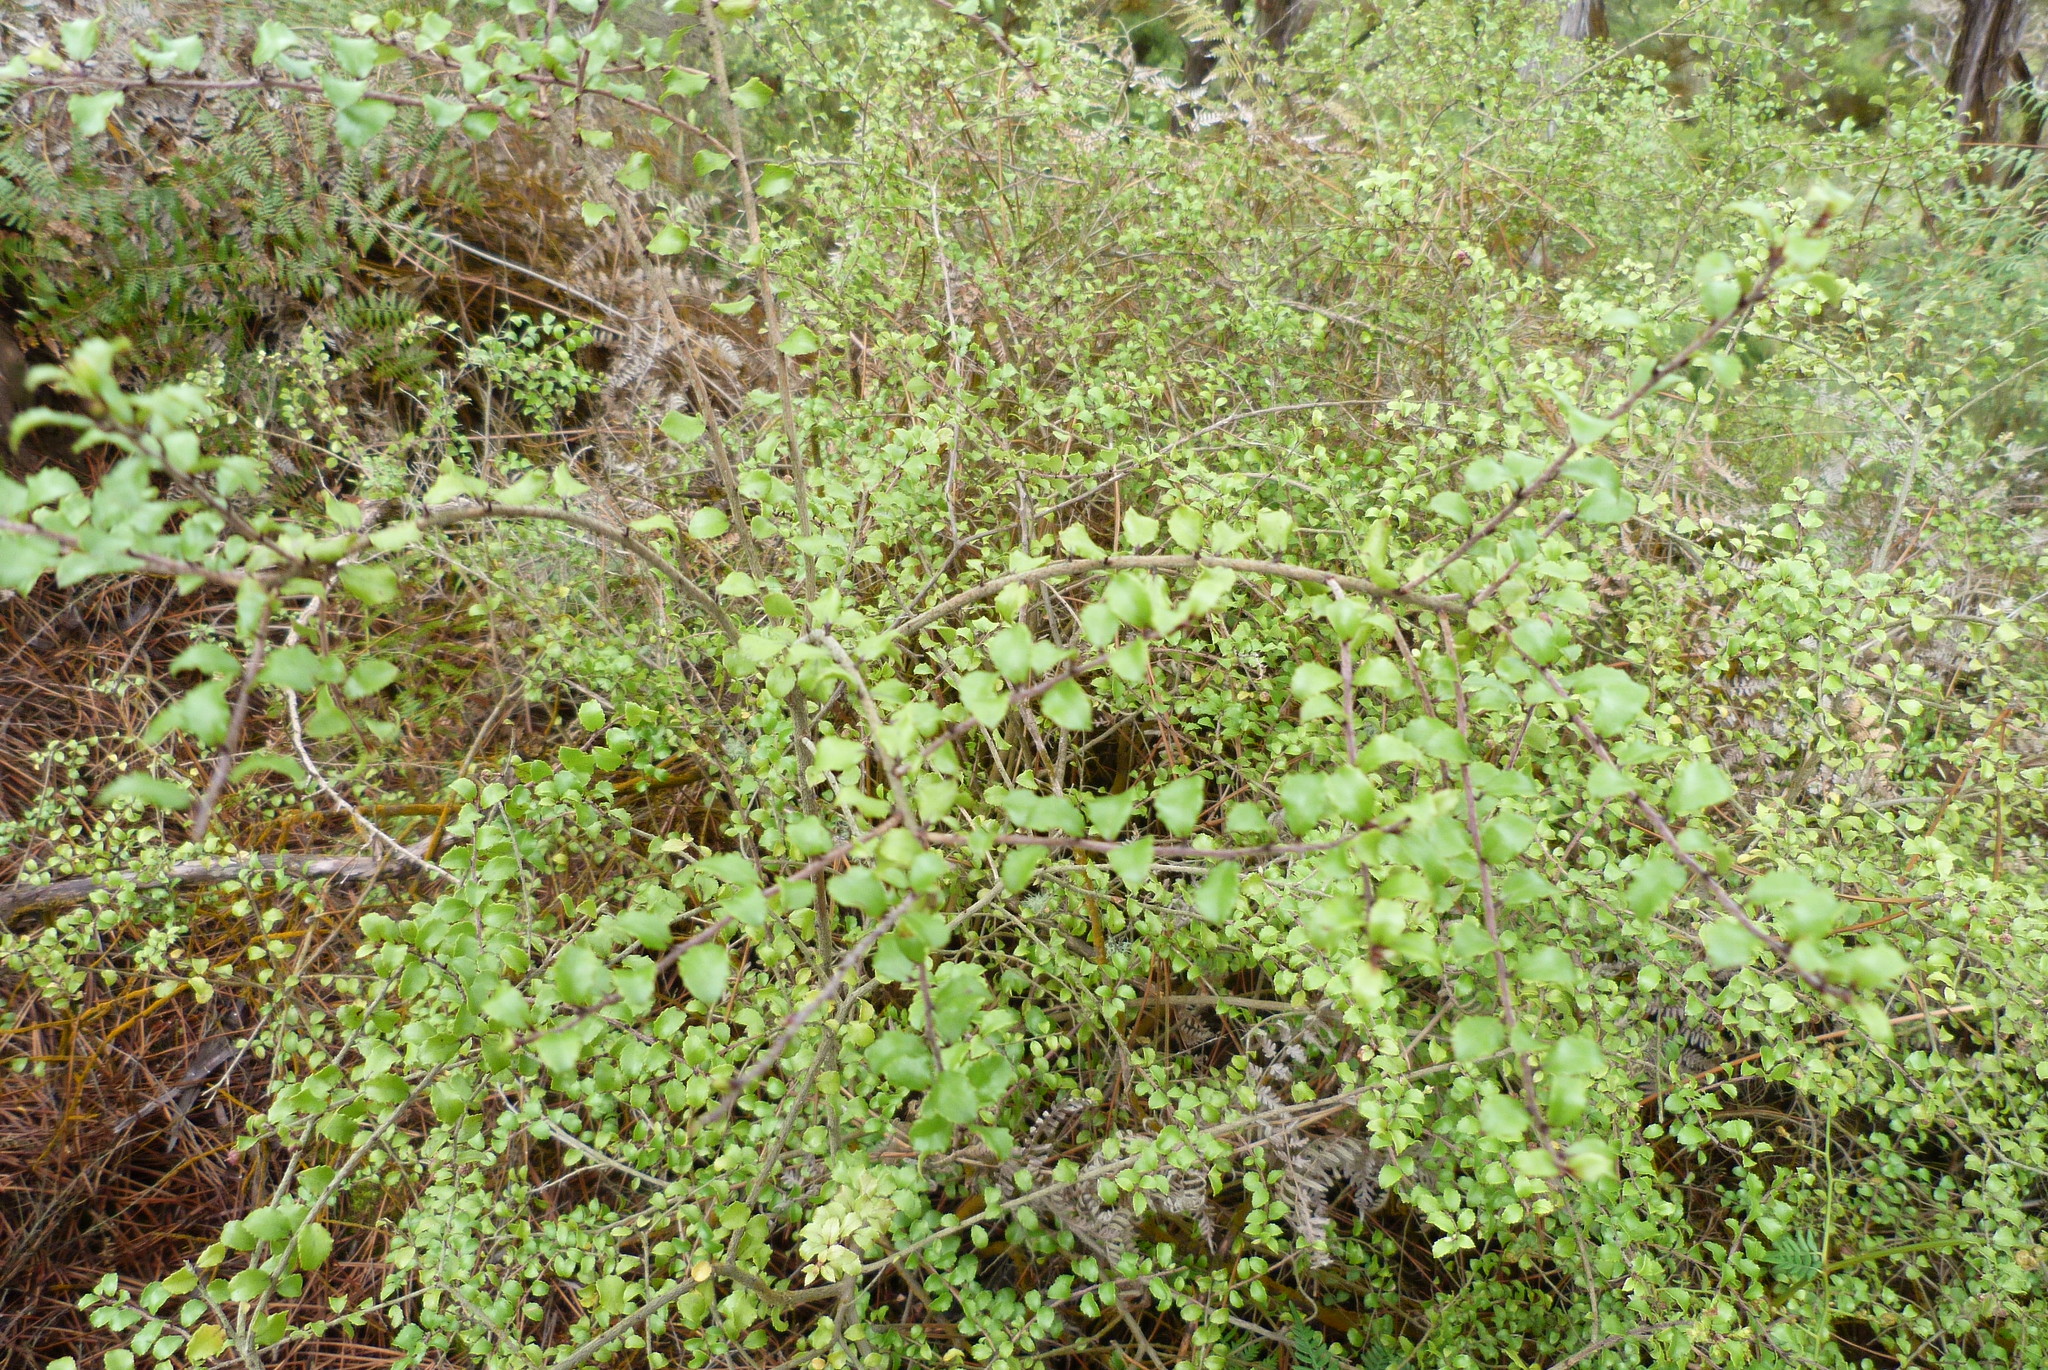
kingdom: Plantae
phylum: Tracheophyta
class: Magnoliopsida
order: Ericales
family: Ericaceae
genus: Gaultheria
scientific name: Gaultheria antipoda
